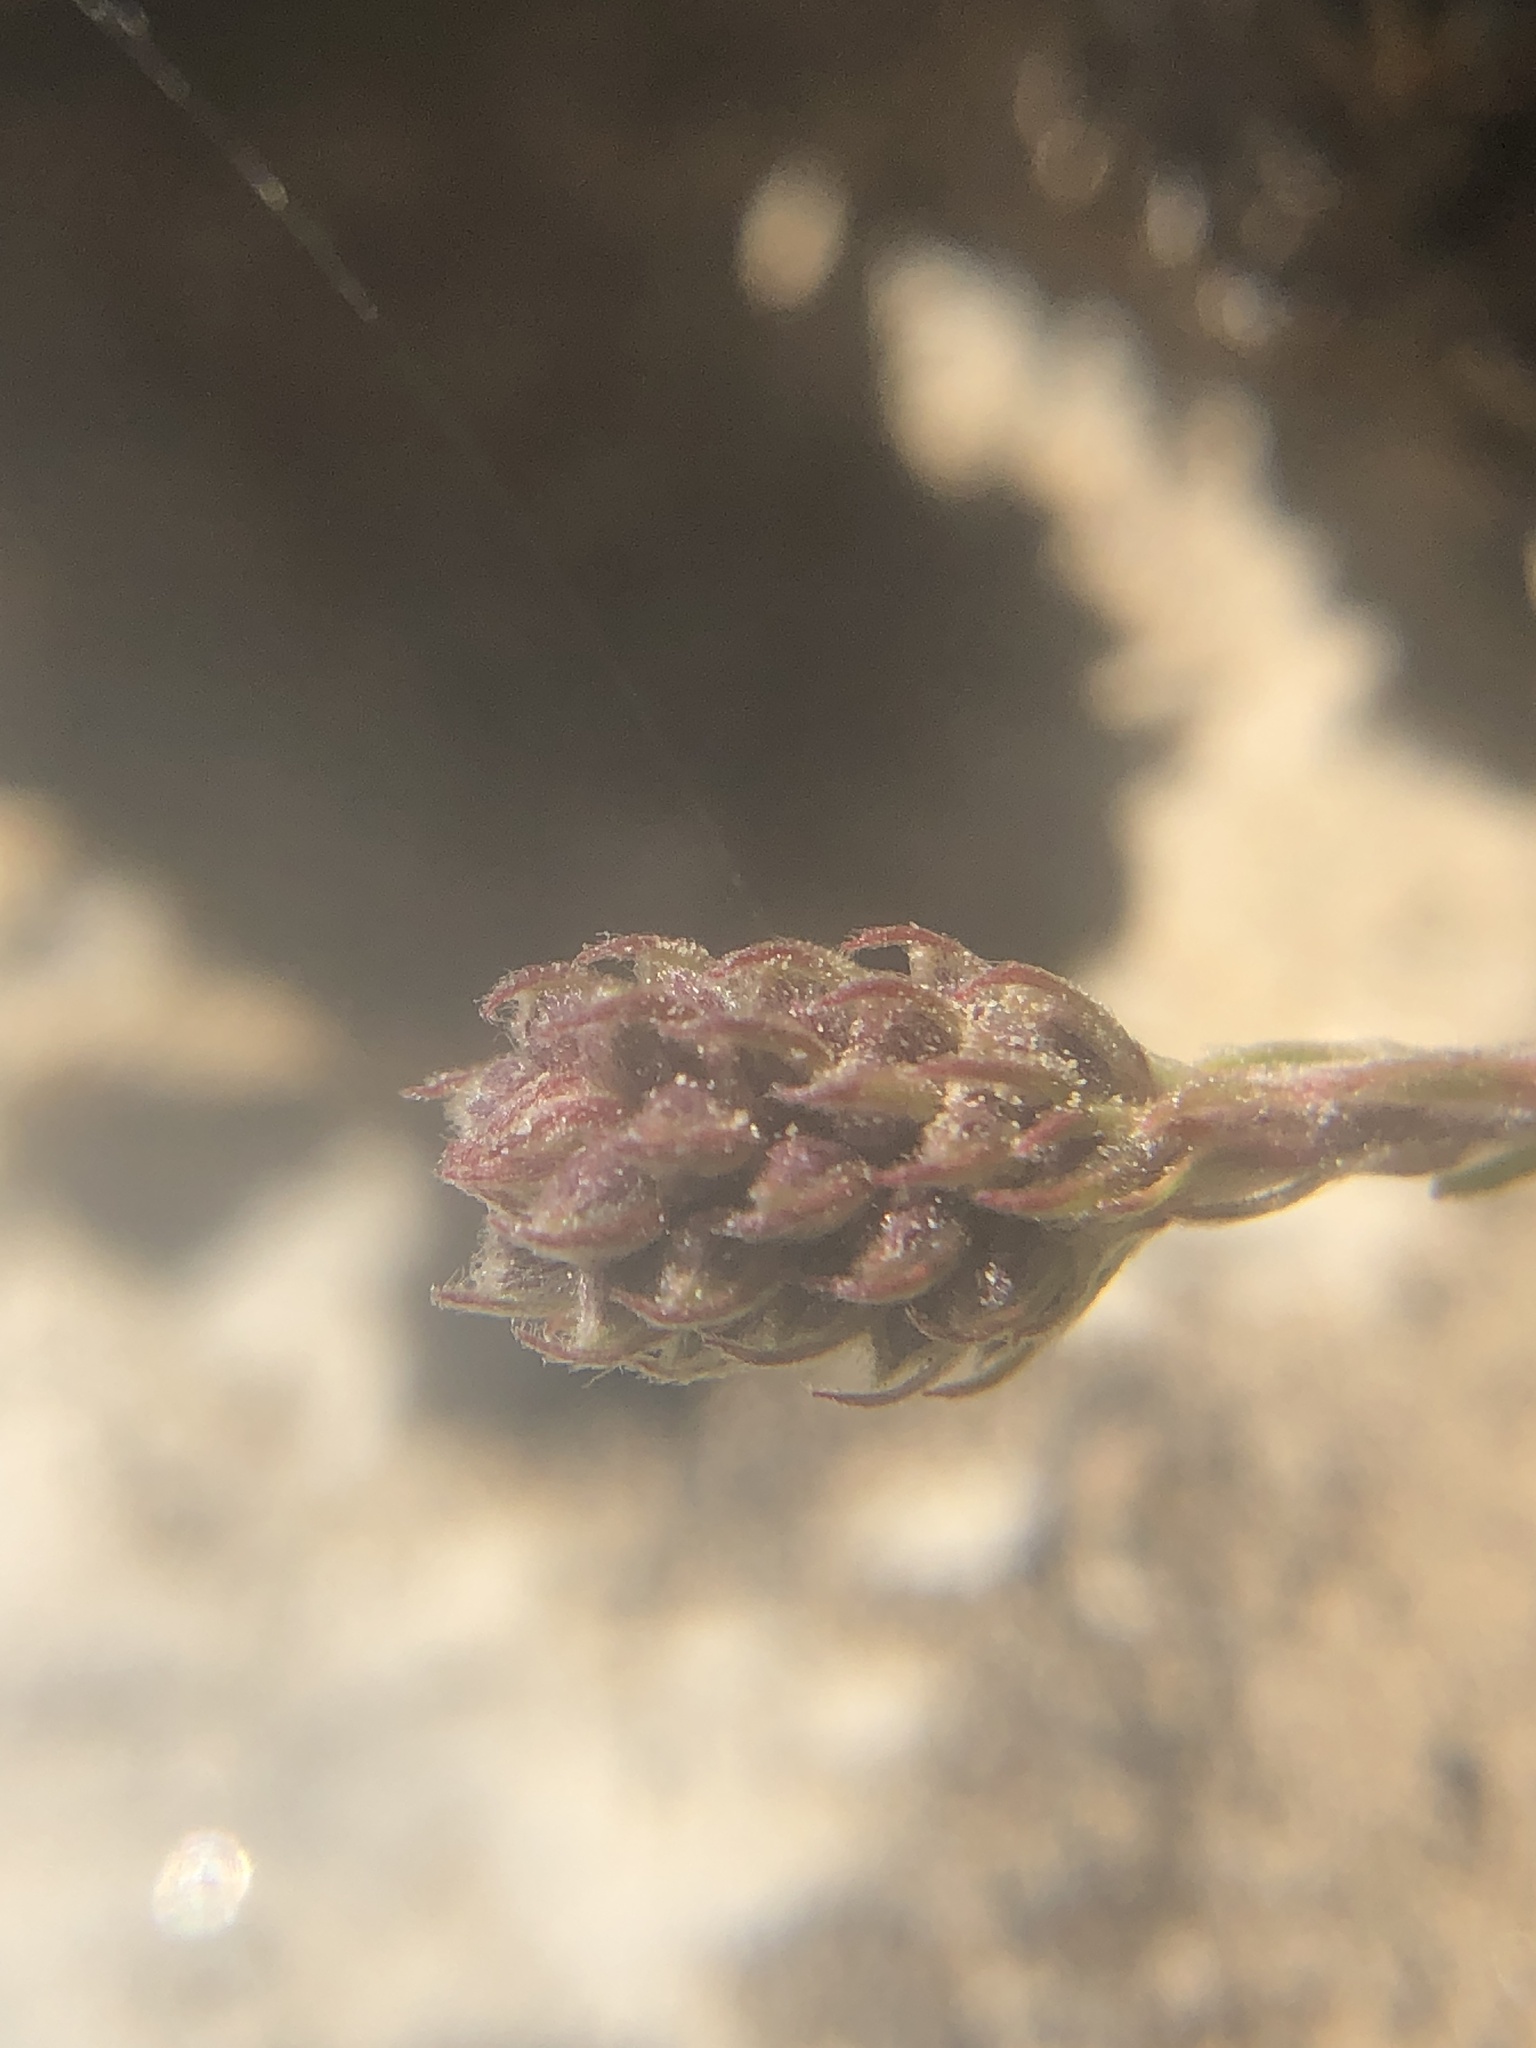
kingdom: Plantae
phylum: Tracheophyta
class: Magnoliopsida
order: Rosales
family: Rosaceae
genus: Petrophytum
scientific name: Petrophytum caespitosum
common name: Mat rockspirea
